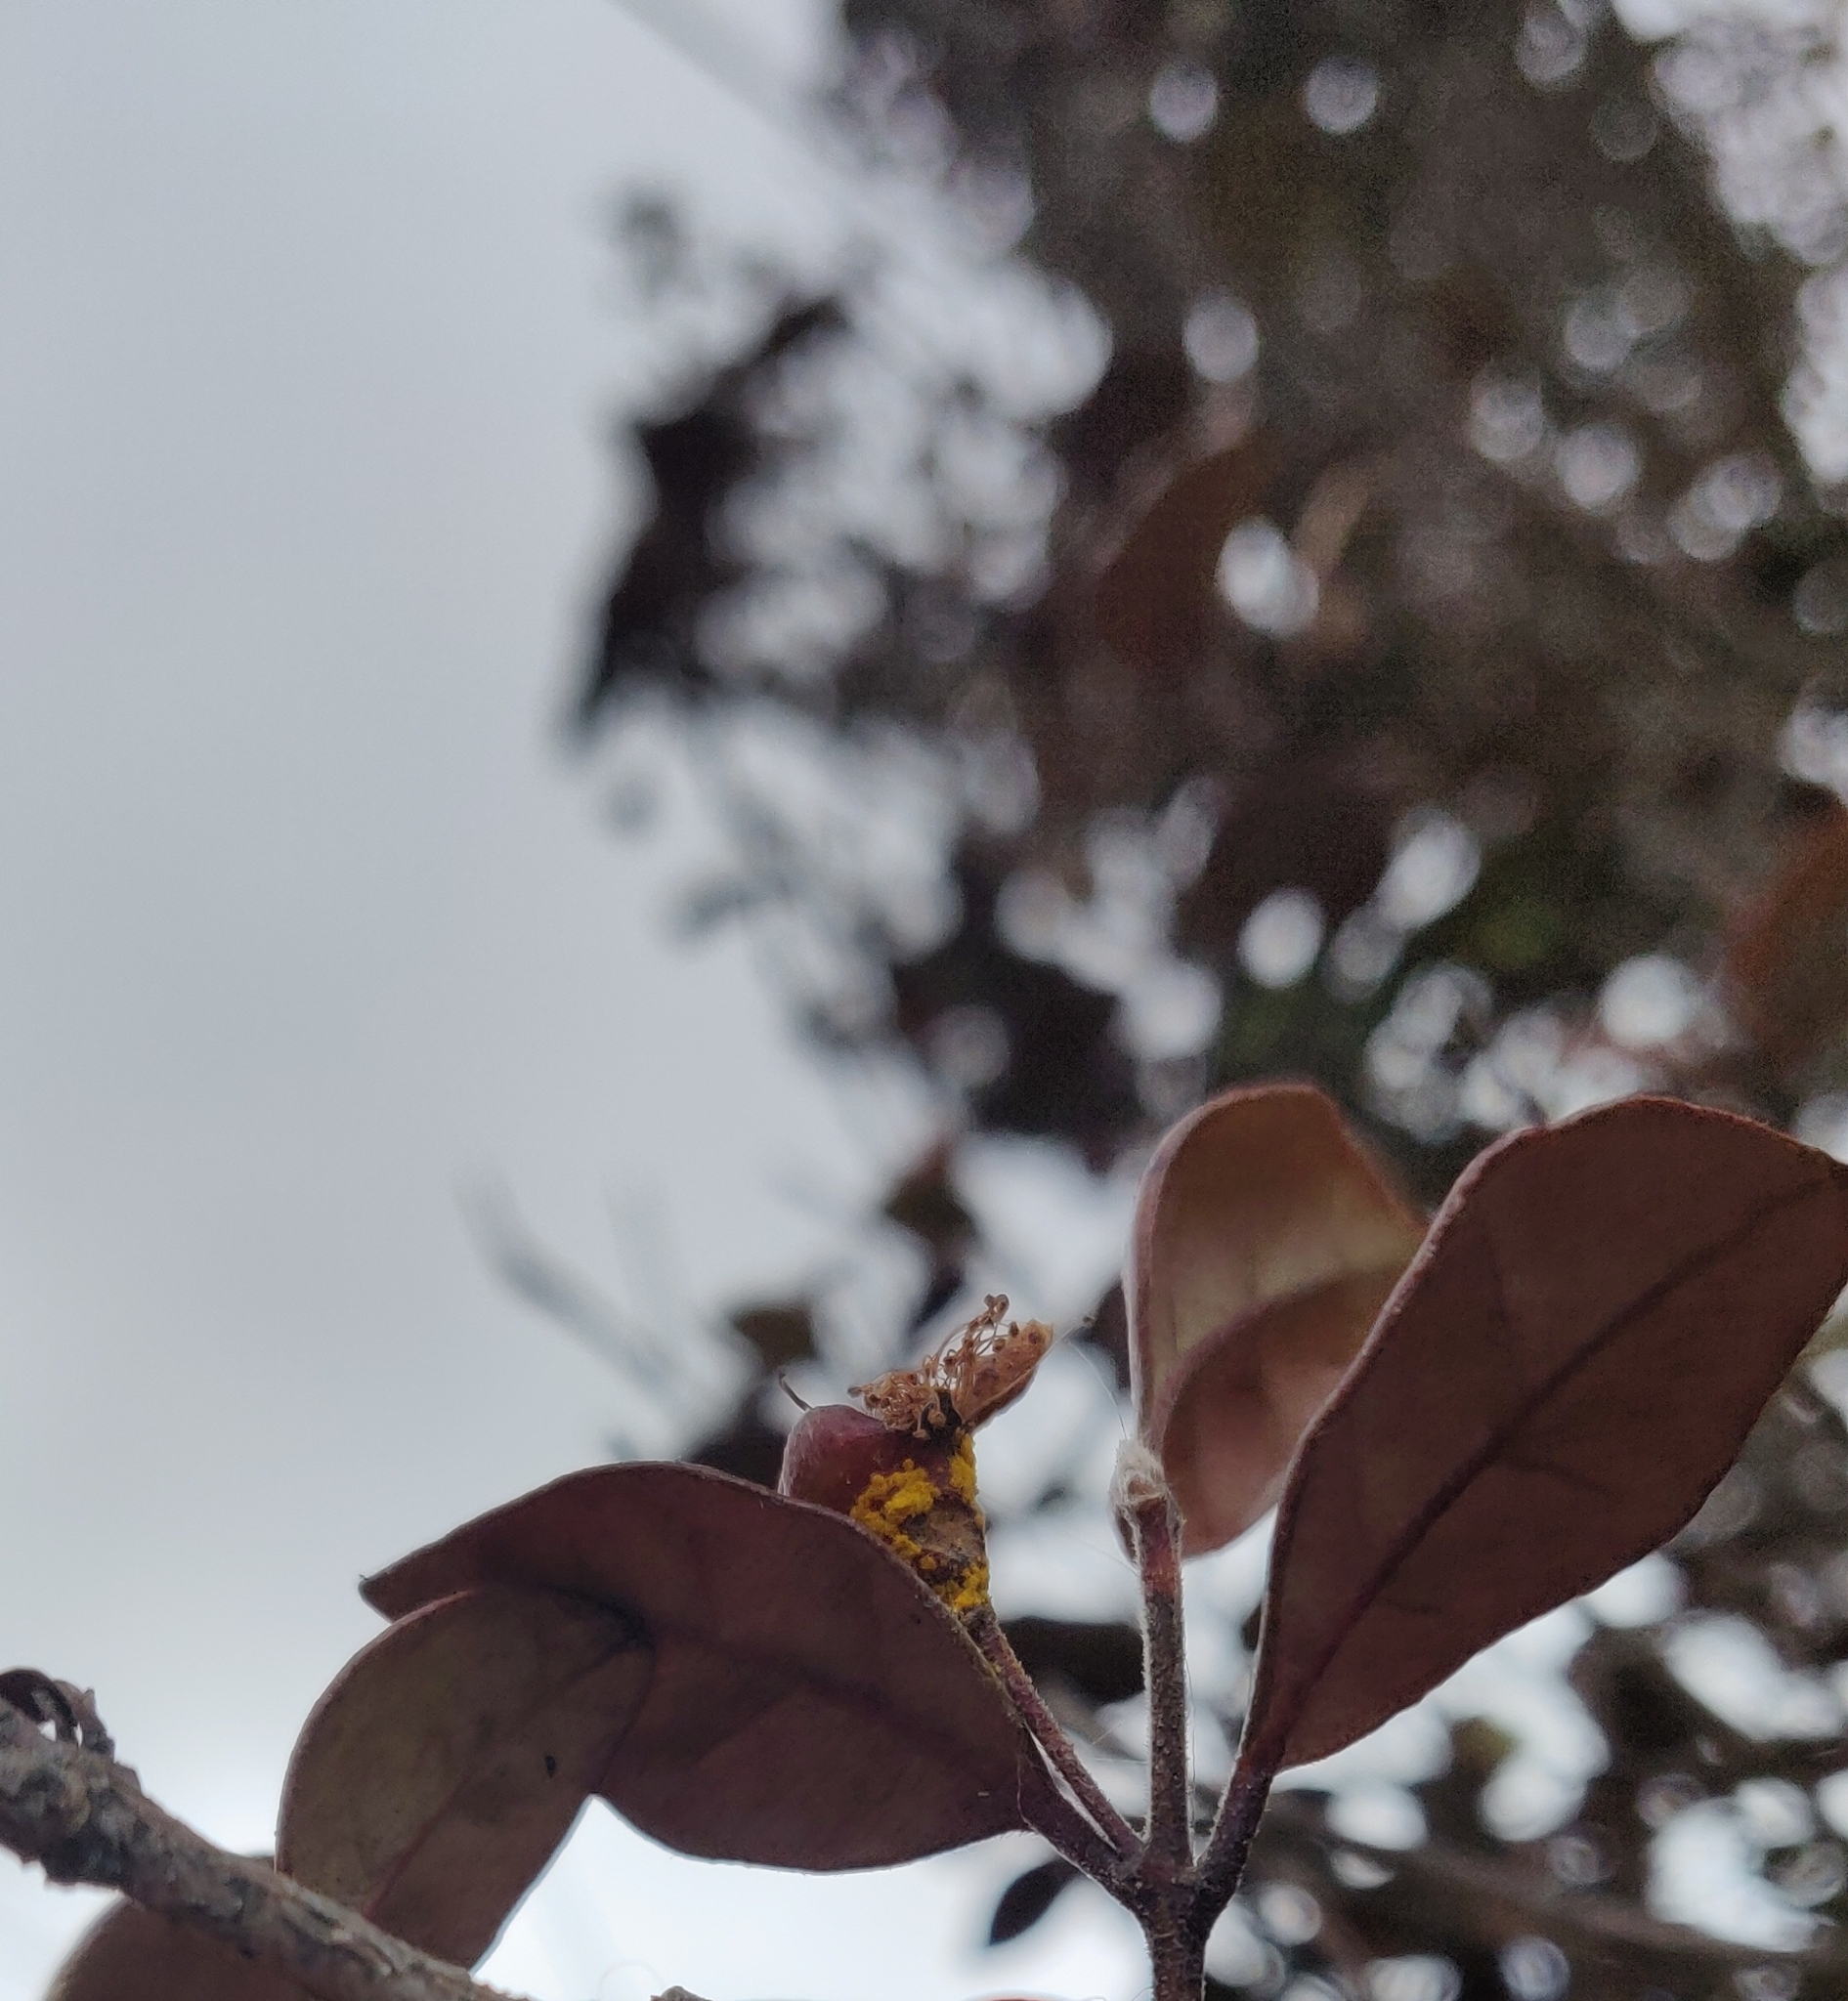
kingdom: Fungi
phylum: Basidiomycota
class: Pucciniomycetes
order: Pucciniales
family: Sphaerophragmiaceae
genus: Austropuccinia
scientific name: Austropuccinia psidii
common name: Myrtle rust
